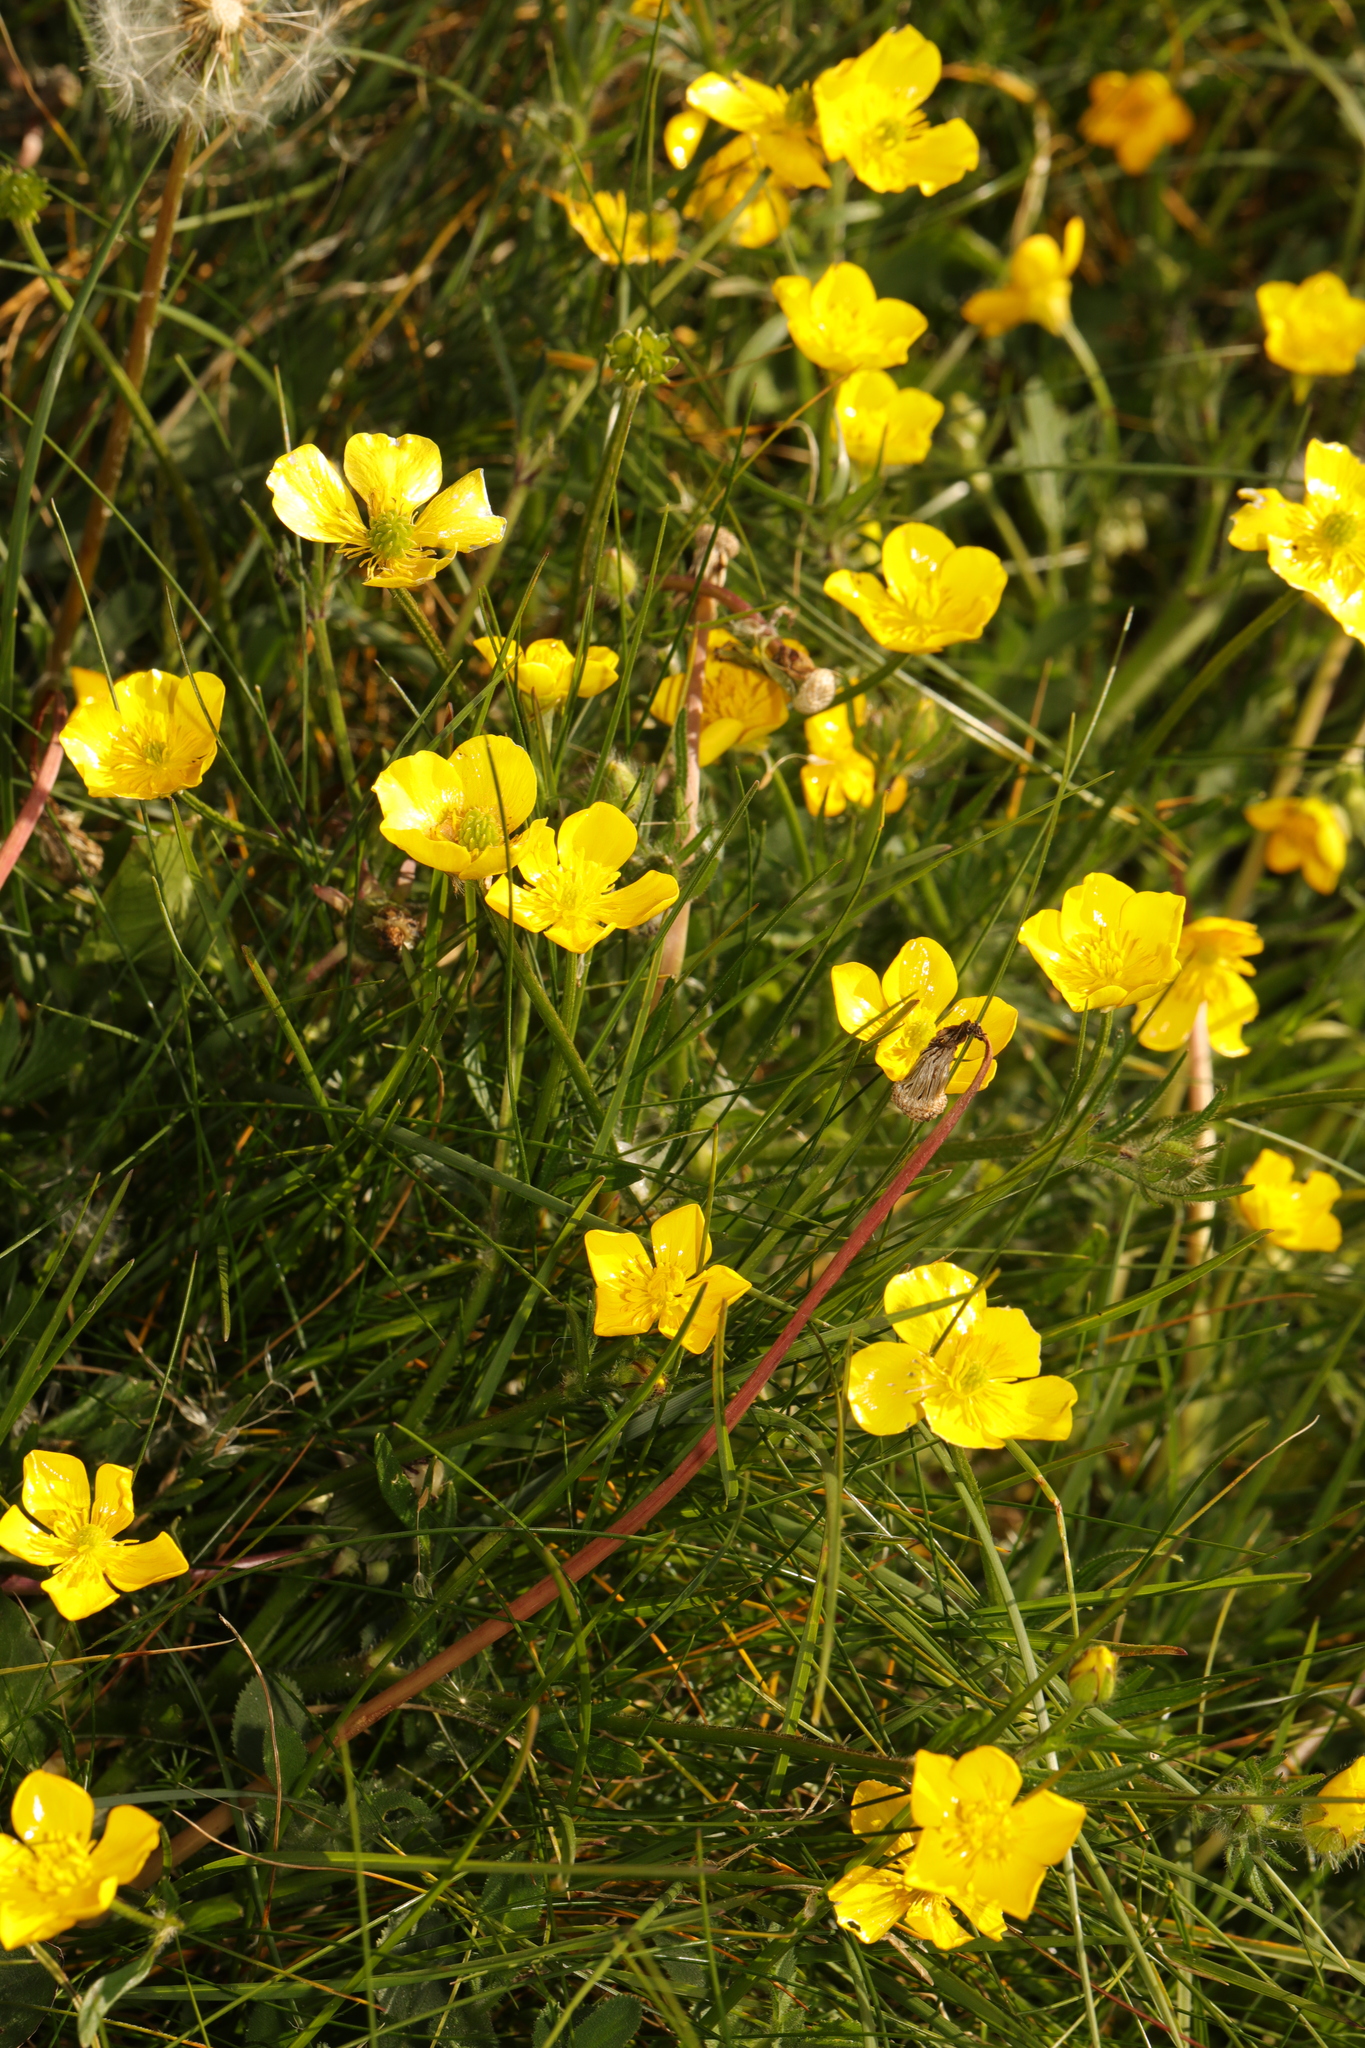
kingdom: Plantae
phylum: Tracheophyta
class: Magnoliopsida
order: Ranunculales
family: Ranunculaceae
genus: Ranunculus
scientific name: Ranunculus bulbosus
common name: Bulbous buttercup
